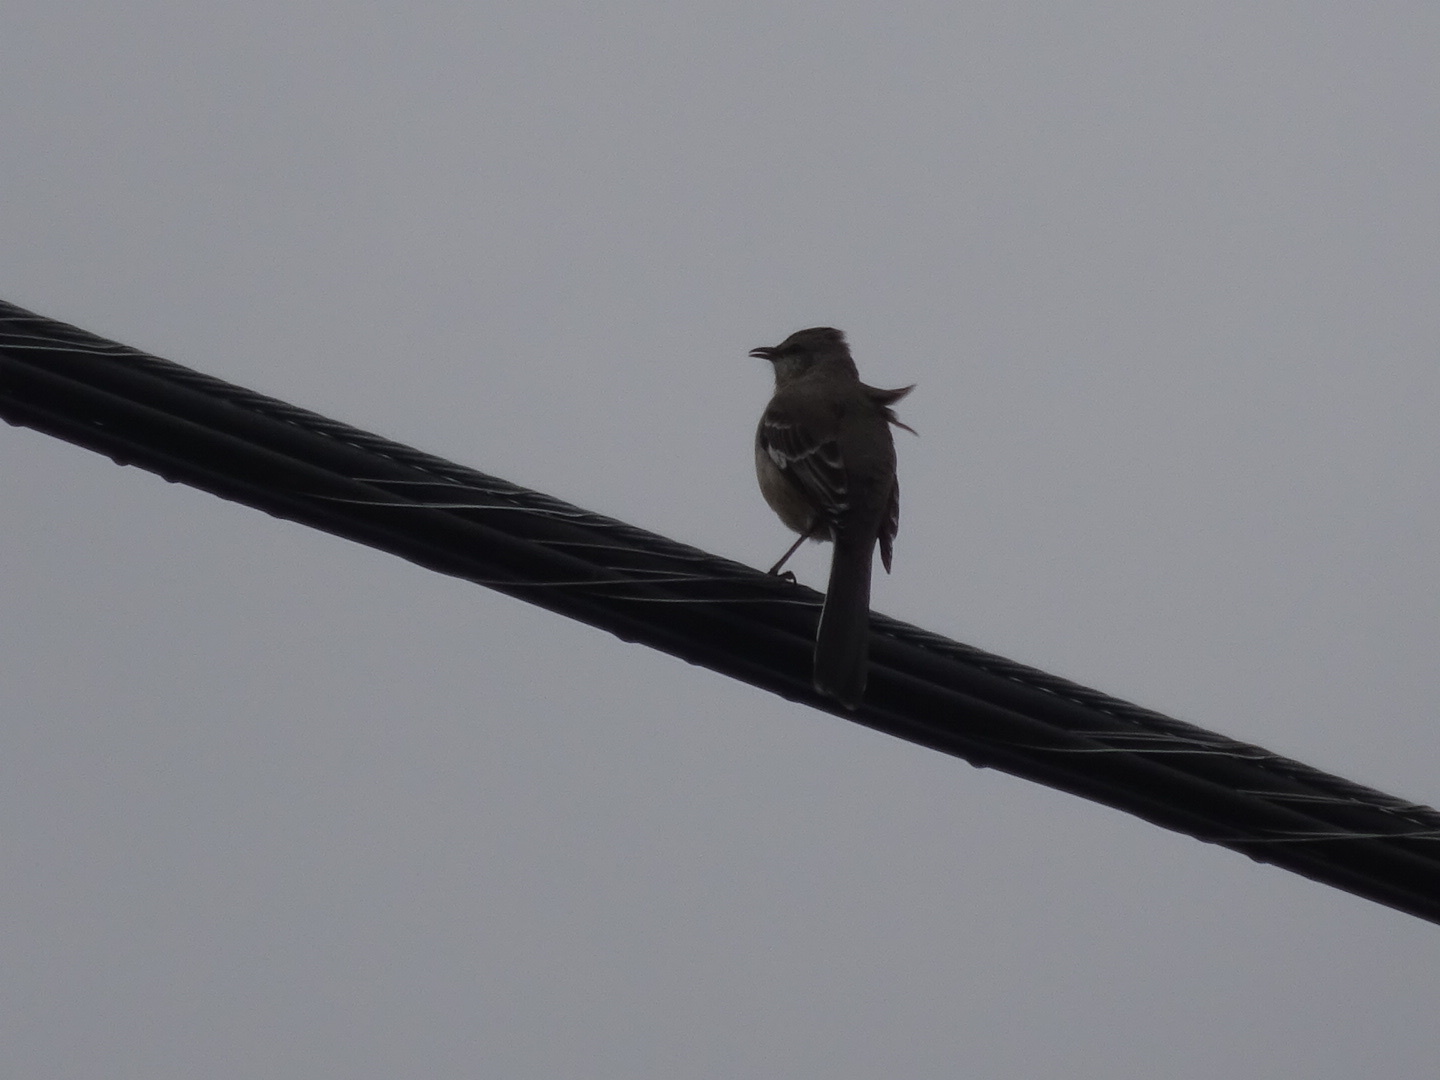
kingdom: Animalia
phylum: Chordata
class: Aves
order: Passeriformes
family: Mimidae
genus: Mimus
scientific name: Mimus polyglottos
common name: Northern mockingbird
